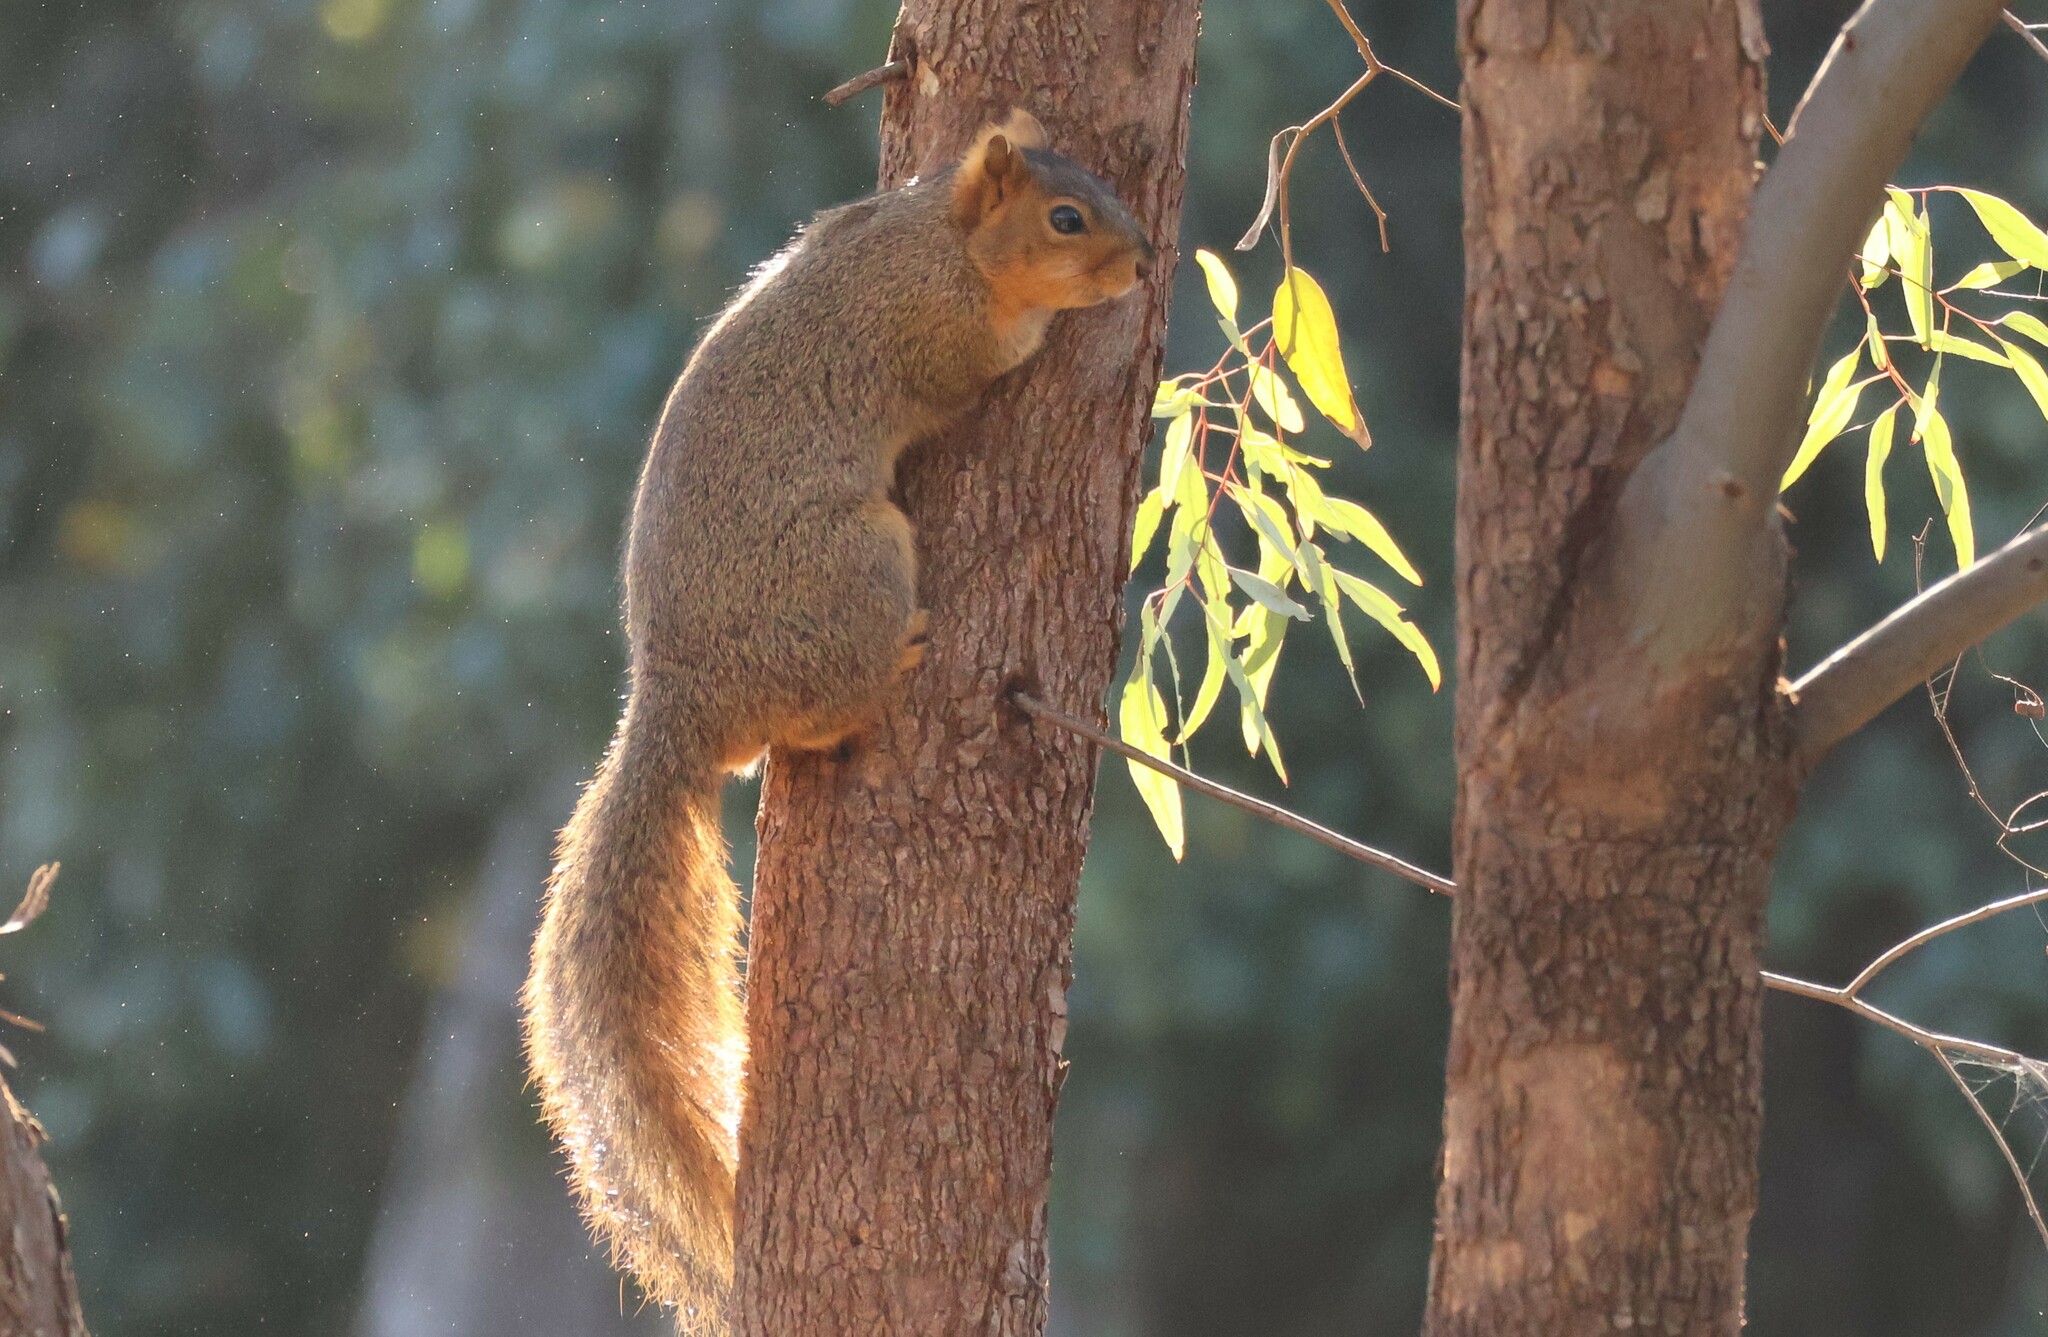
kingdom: Animalia
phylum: Chordata
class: Mammalia
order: Rodentia
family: Sciuridae
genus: Sciurus
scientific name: Sciurus niger
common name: Fox squirrel
